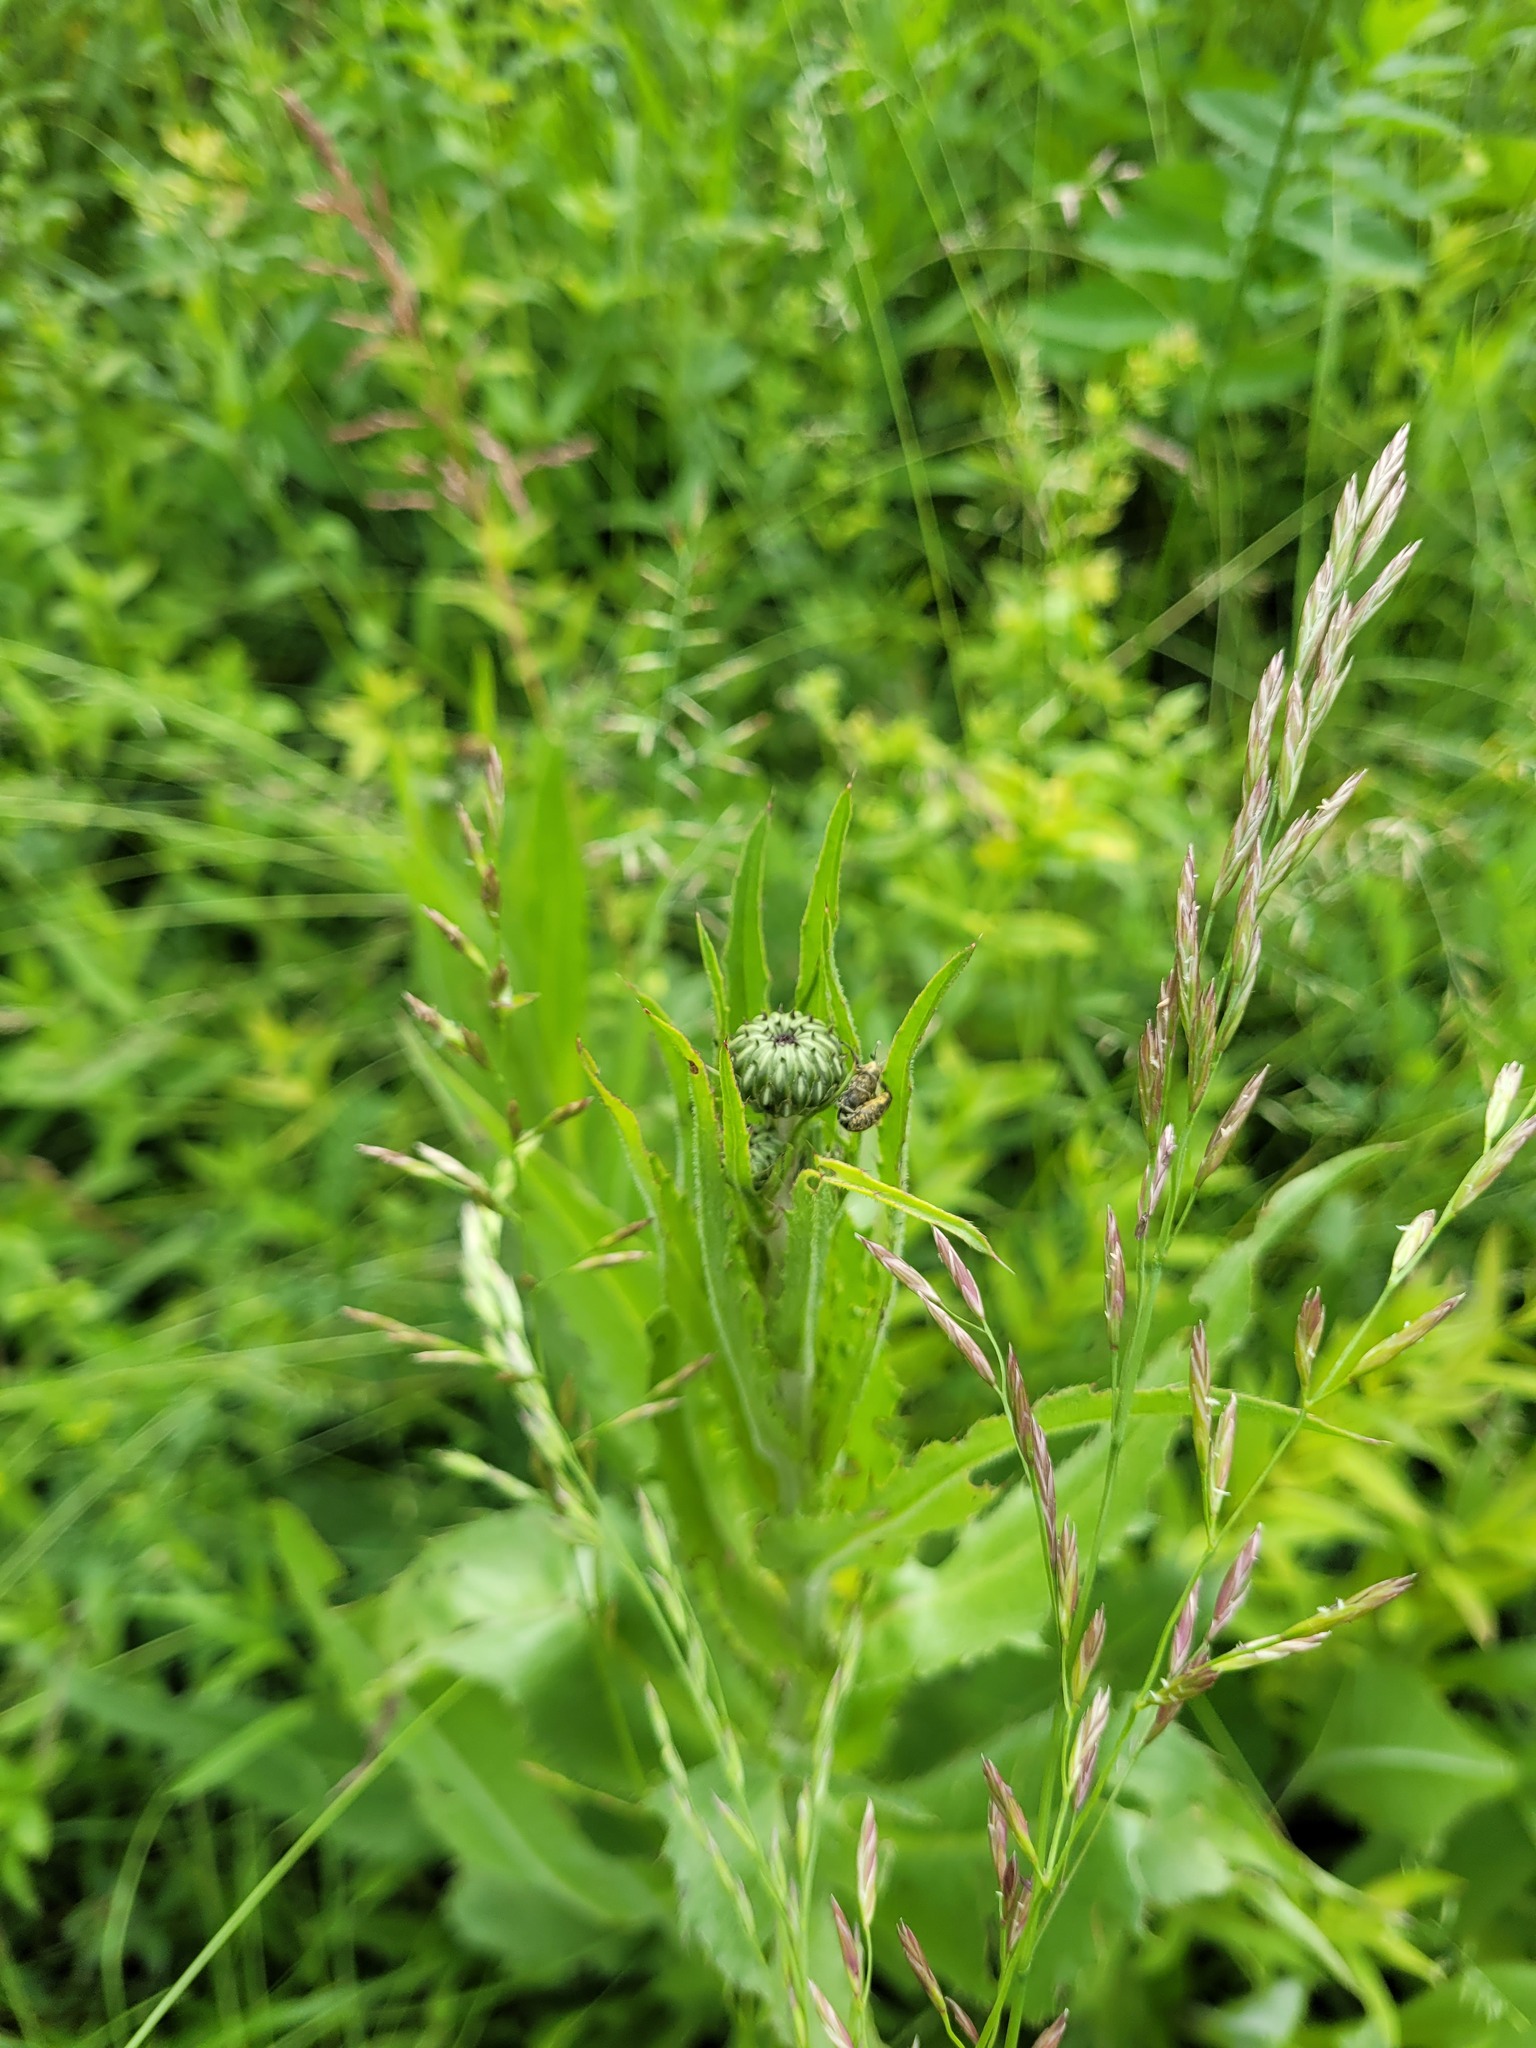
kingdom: Plantae
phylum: Tracheophyta
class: Magnoliopsida
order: Asterales
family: Asteraceae
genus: Cirsium
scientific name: Cirsium canum
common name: Queen anne's thistle
